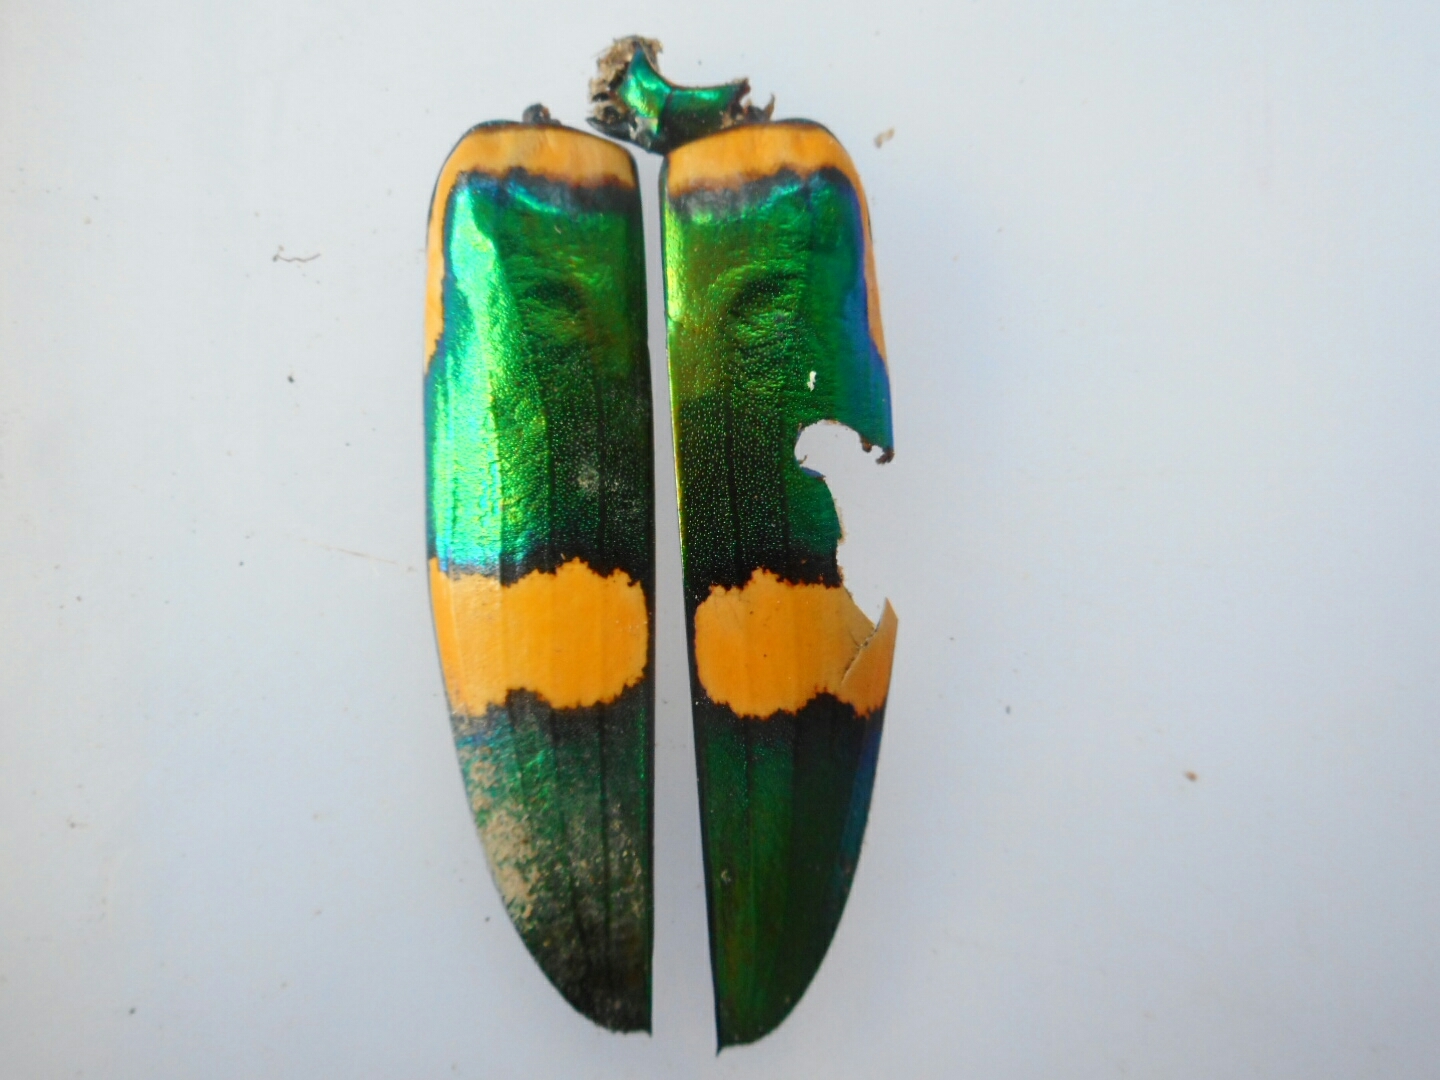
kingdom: Animalia
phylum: Arthropoda
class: Insecta
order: Coleoptera
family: Buprestidae
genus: Chrysochroa
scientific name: Chrysochroa viridisplendens
